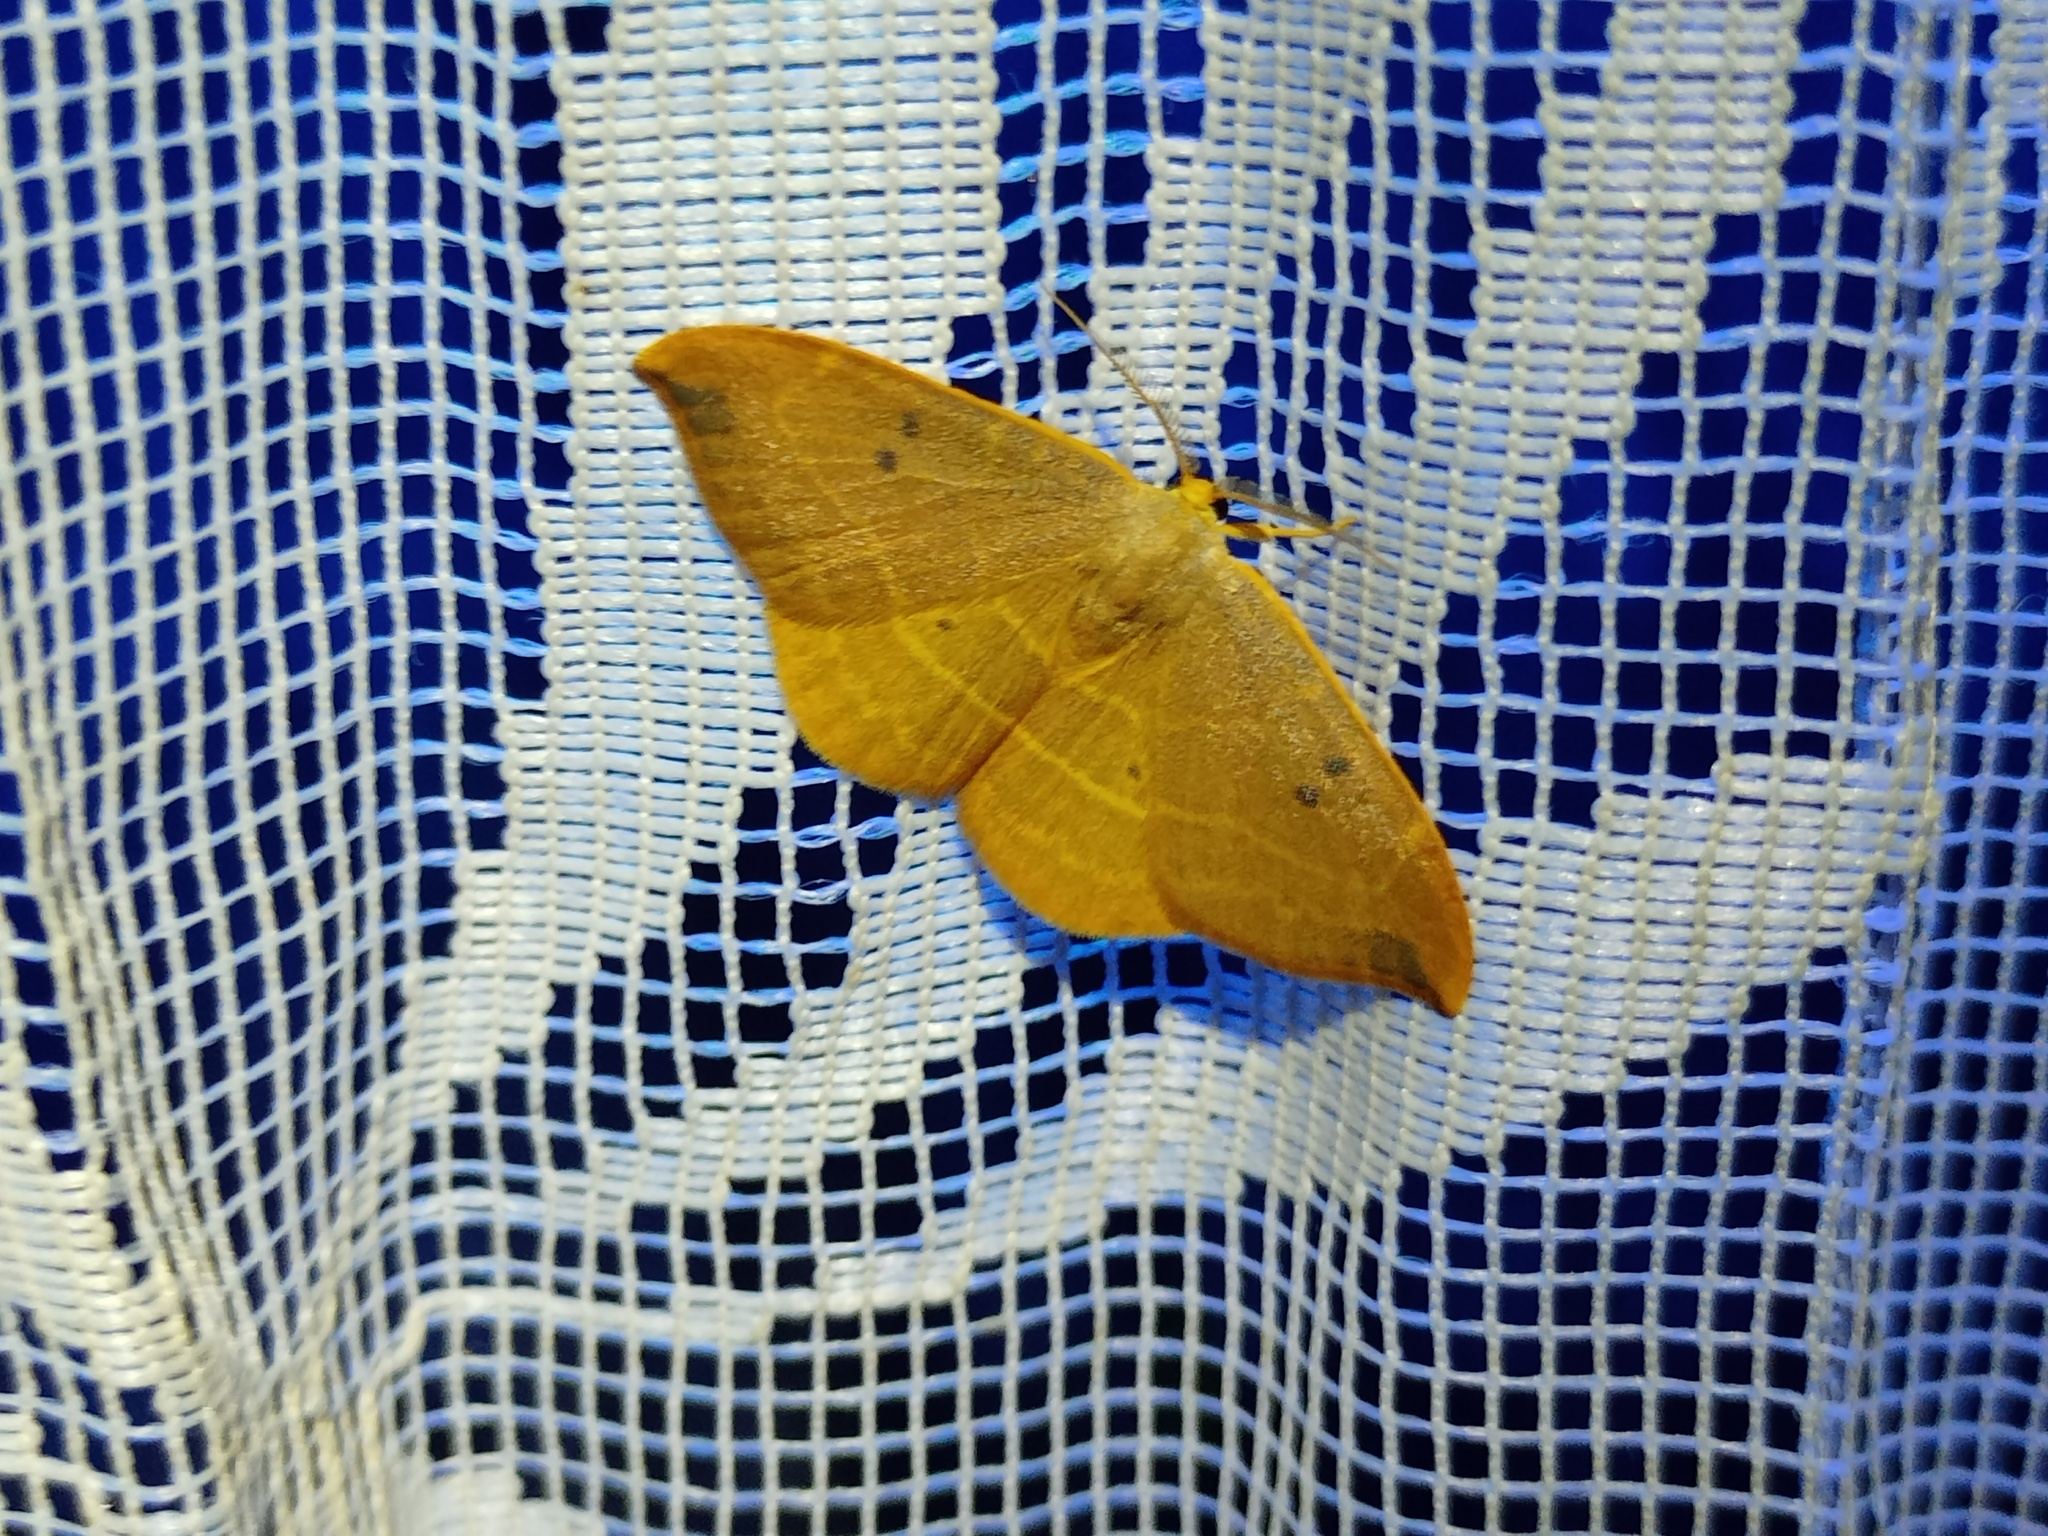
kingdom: Animalia
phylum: Arthropoda
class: Insecta
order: Lepidoptera
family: Drepanidae
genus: Watsonalla
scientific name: Watsonalla binaria
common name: Oak hook-tip
